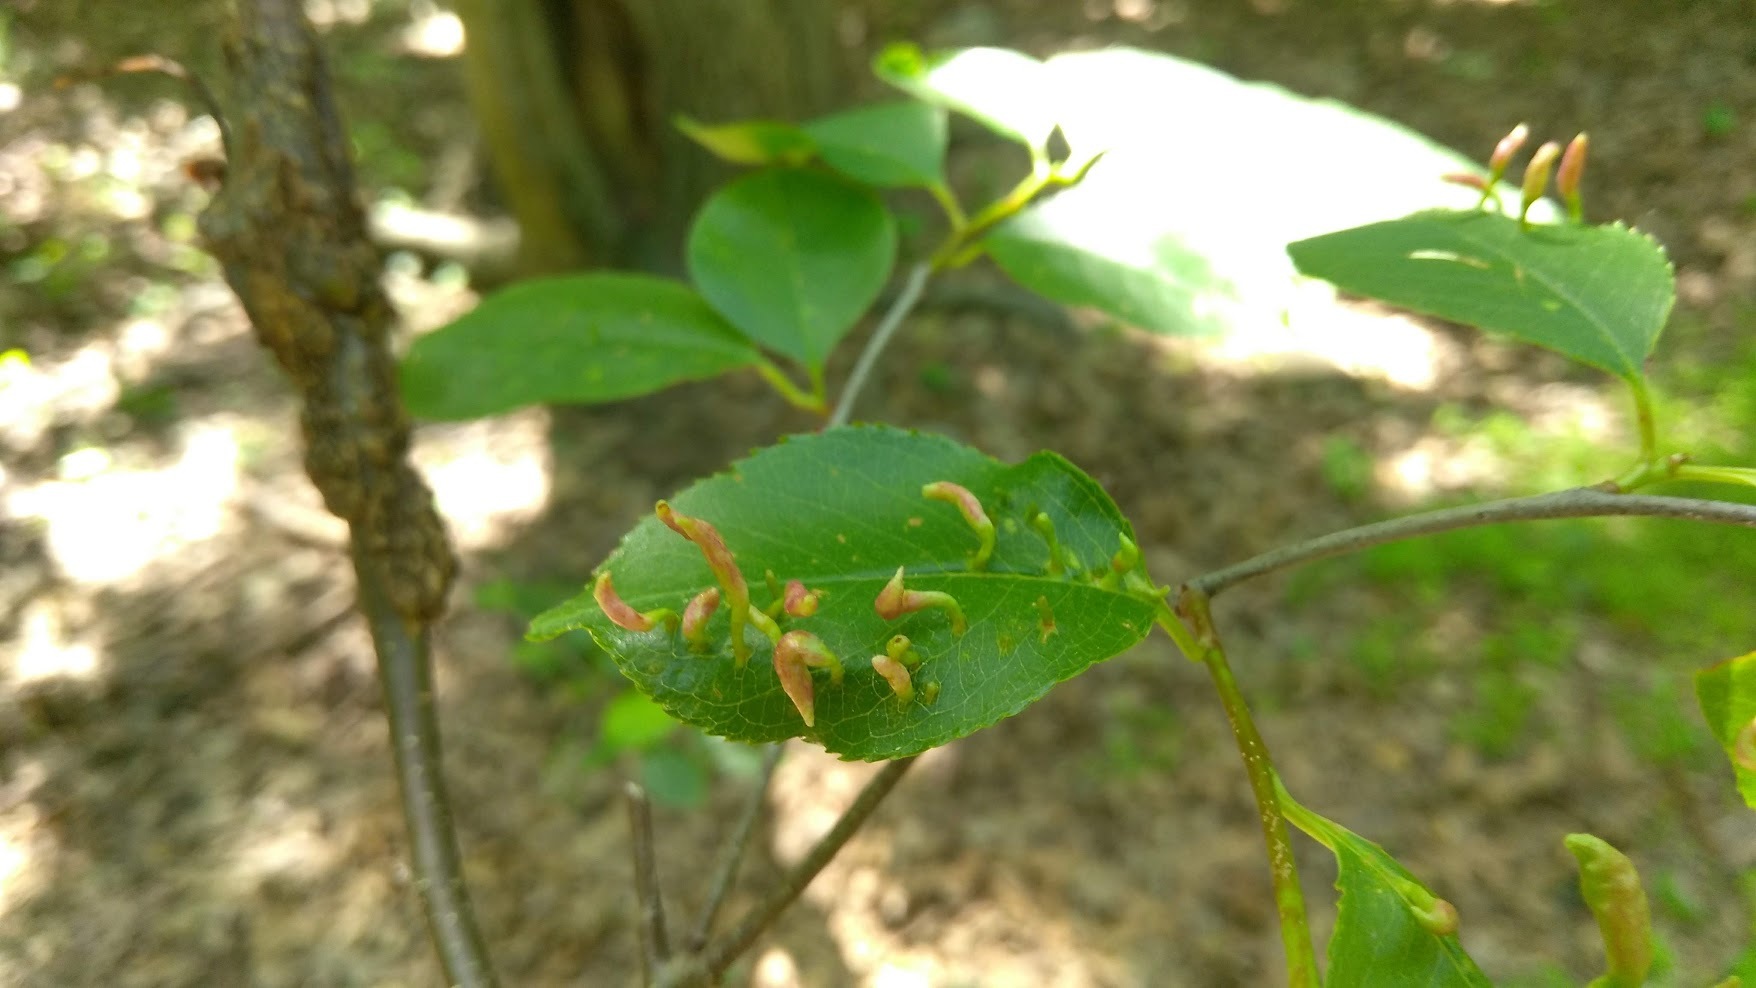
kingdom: Animalia
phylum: Arthropoda
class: Arachnida
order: Trombidiformes
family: Eriophyidae
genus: Eriophyes
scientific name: Eriophyes
